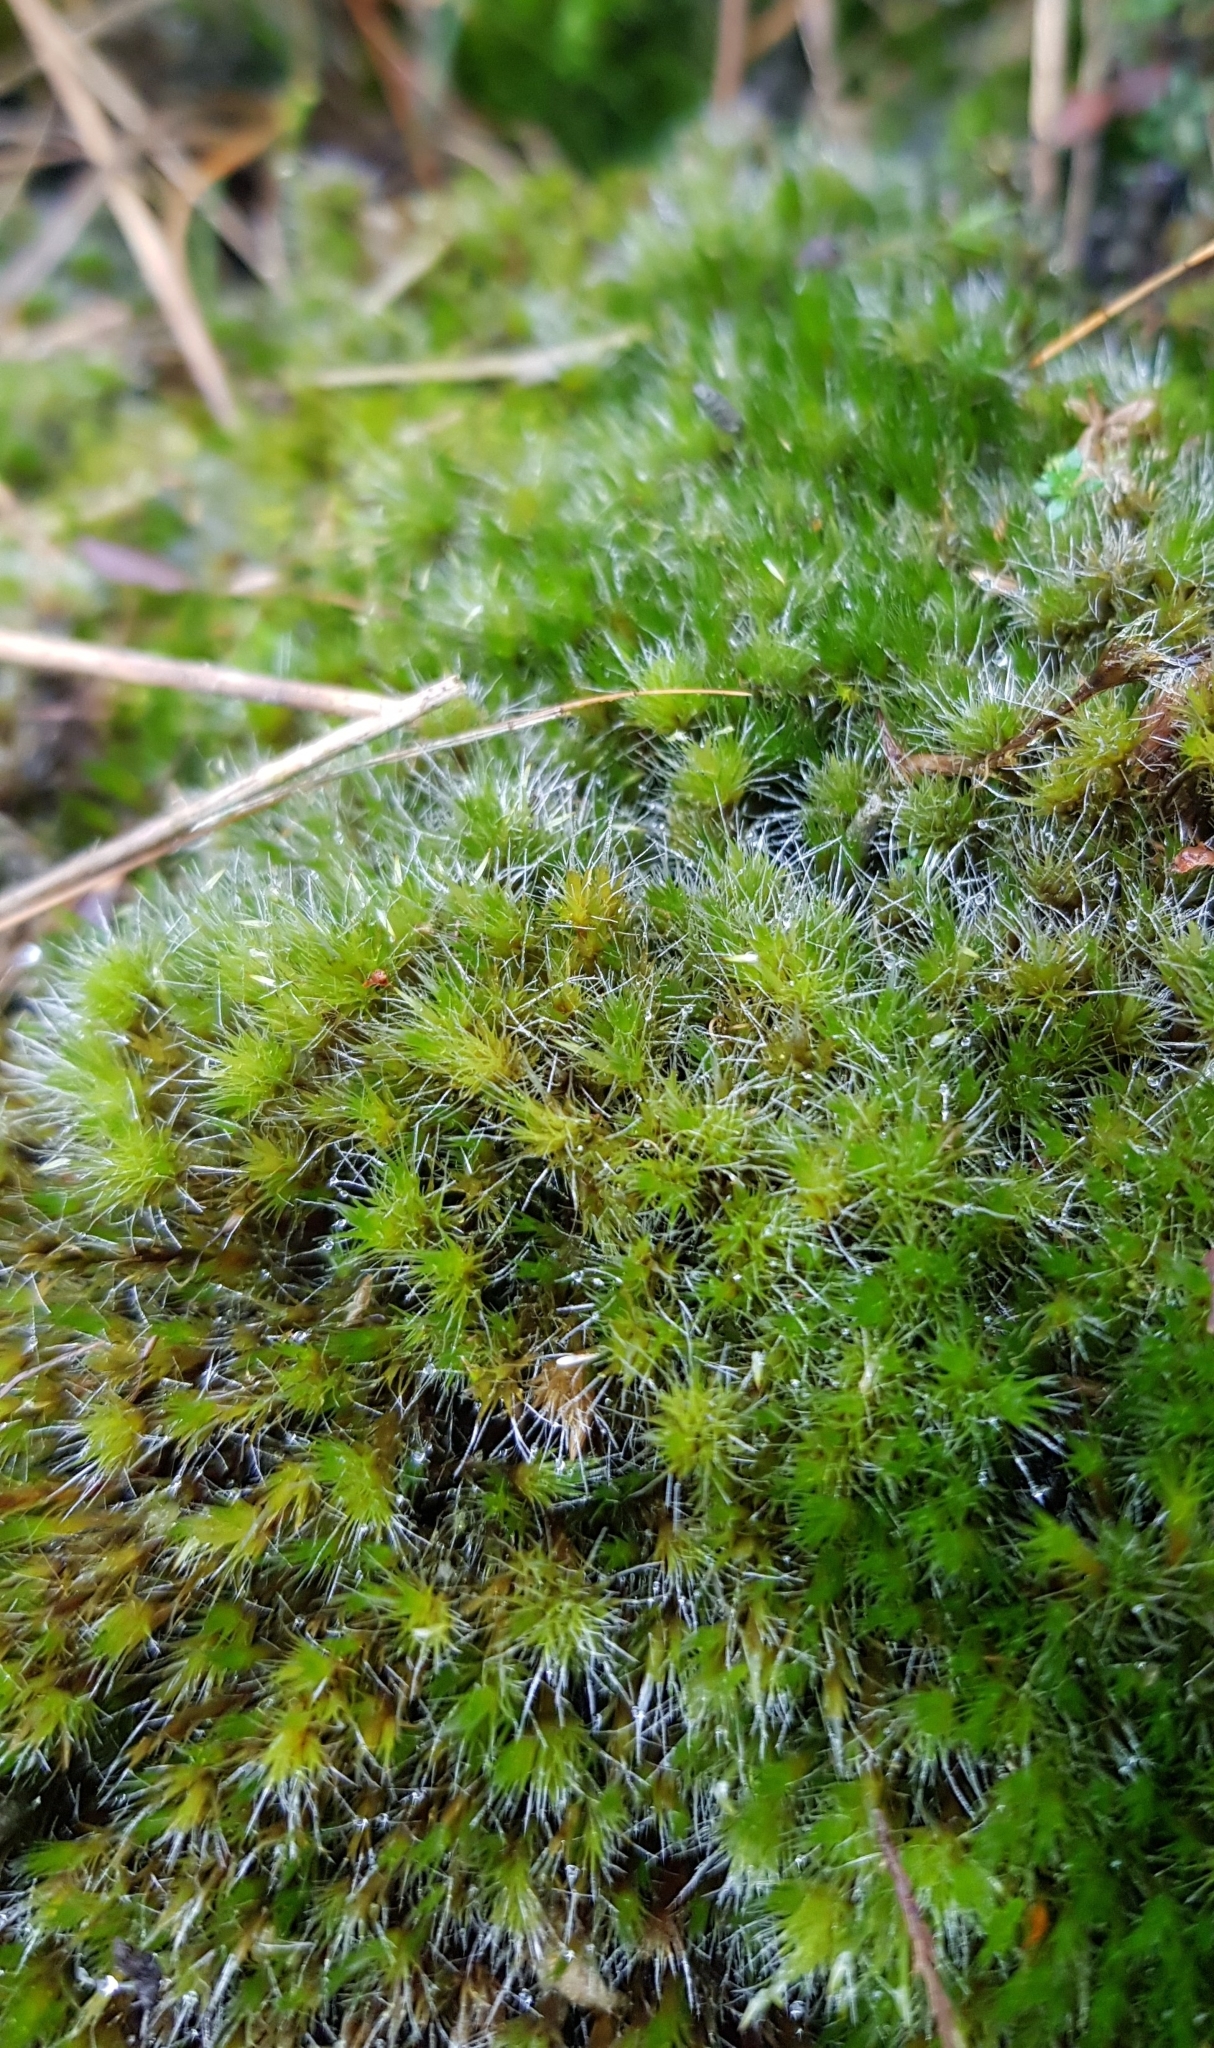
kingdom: Plantae
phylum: Bryophyta
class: Bryopsida
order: Dicranales
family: Leucobryaceae
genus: Campylopus
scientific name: Campylopus introflexus
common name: Heath star moss
